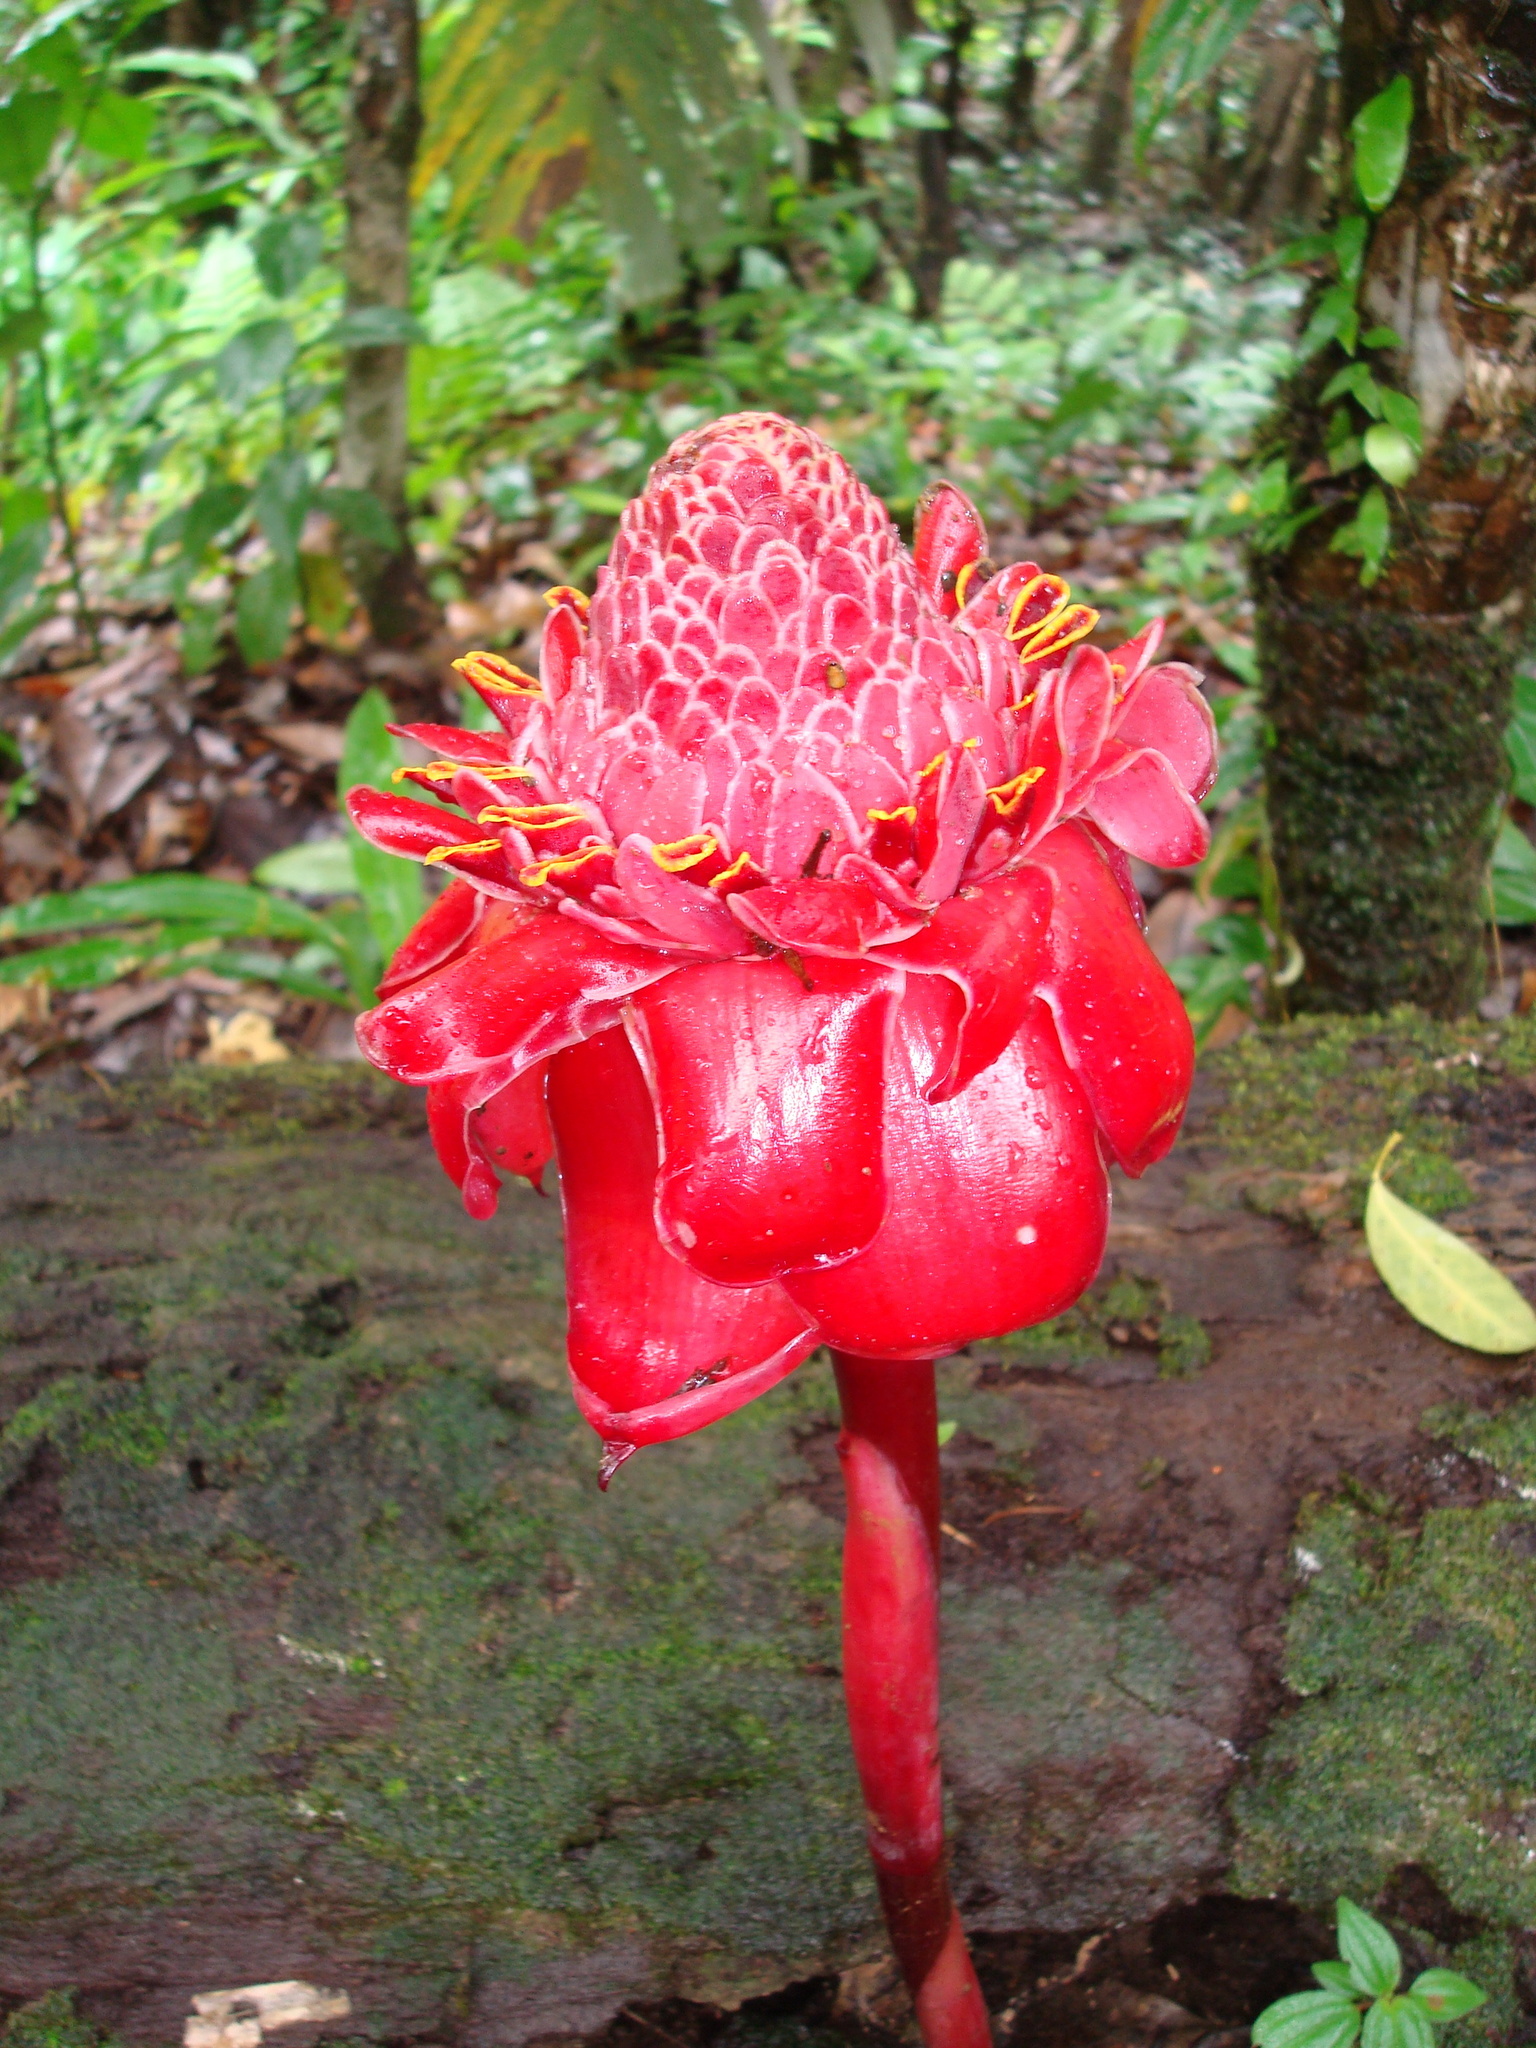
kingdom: Plantae
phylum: Tracheophyta
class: Liliopsida
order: Zingiberales
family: Zingiberaceae
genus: Etlingera
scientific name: Etlingera elatior
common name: Philippine waxflower
